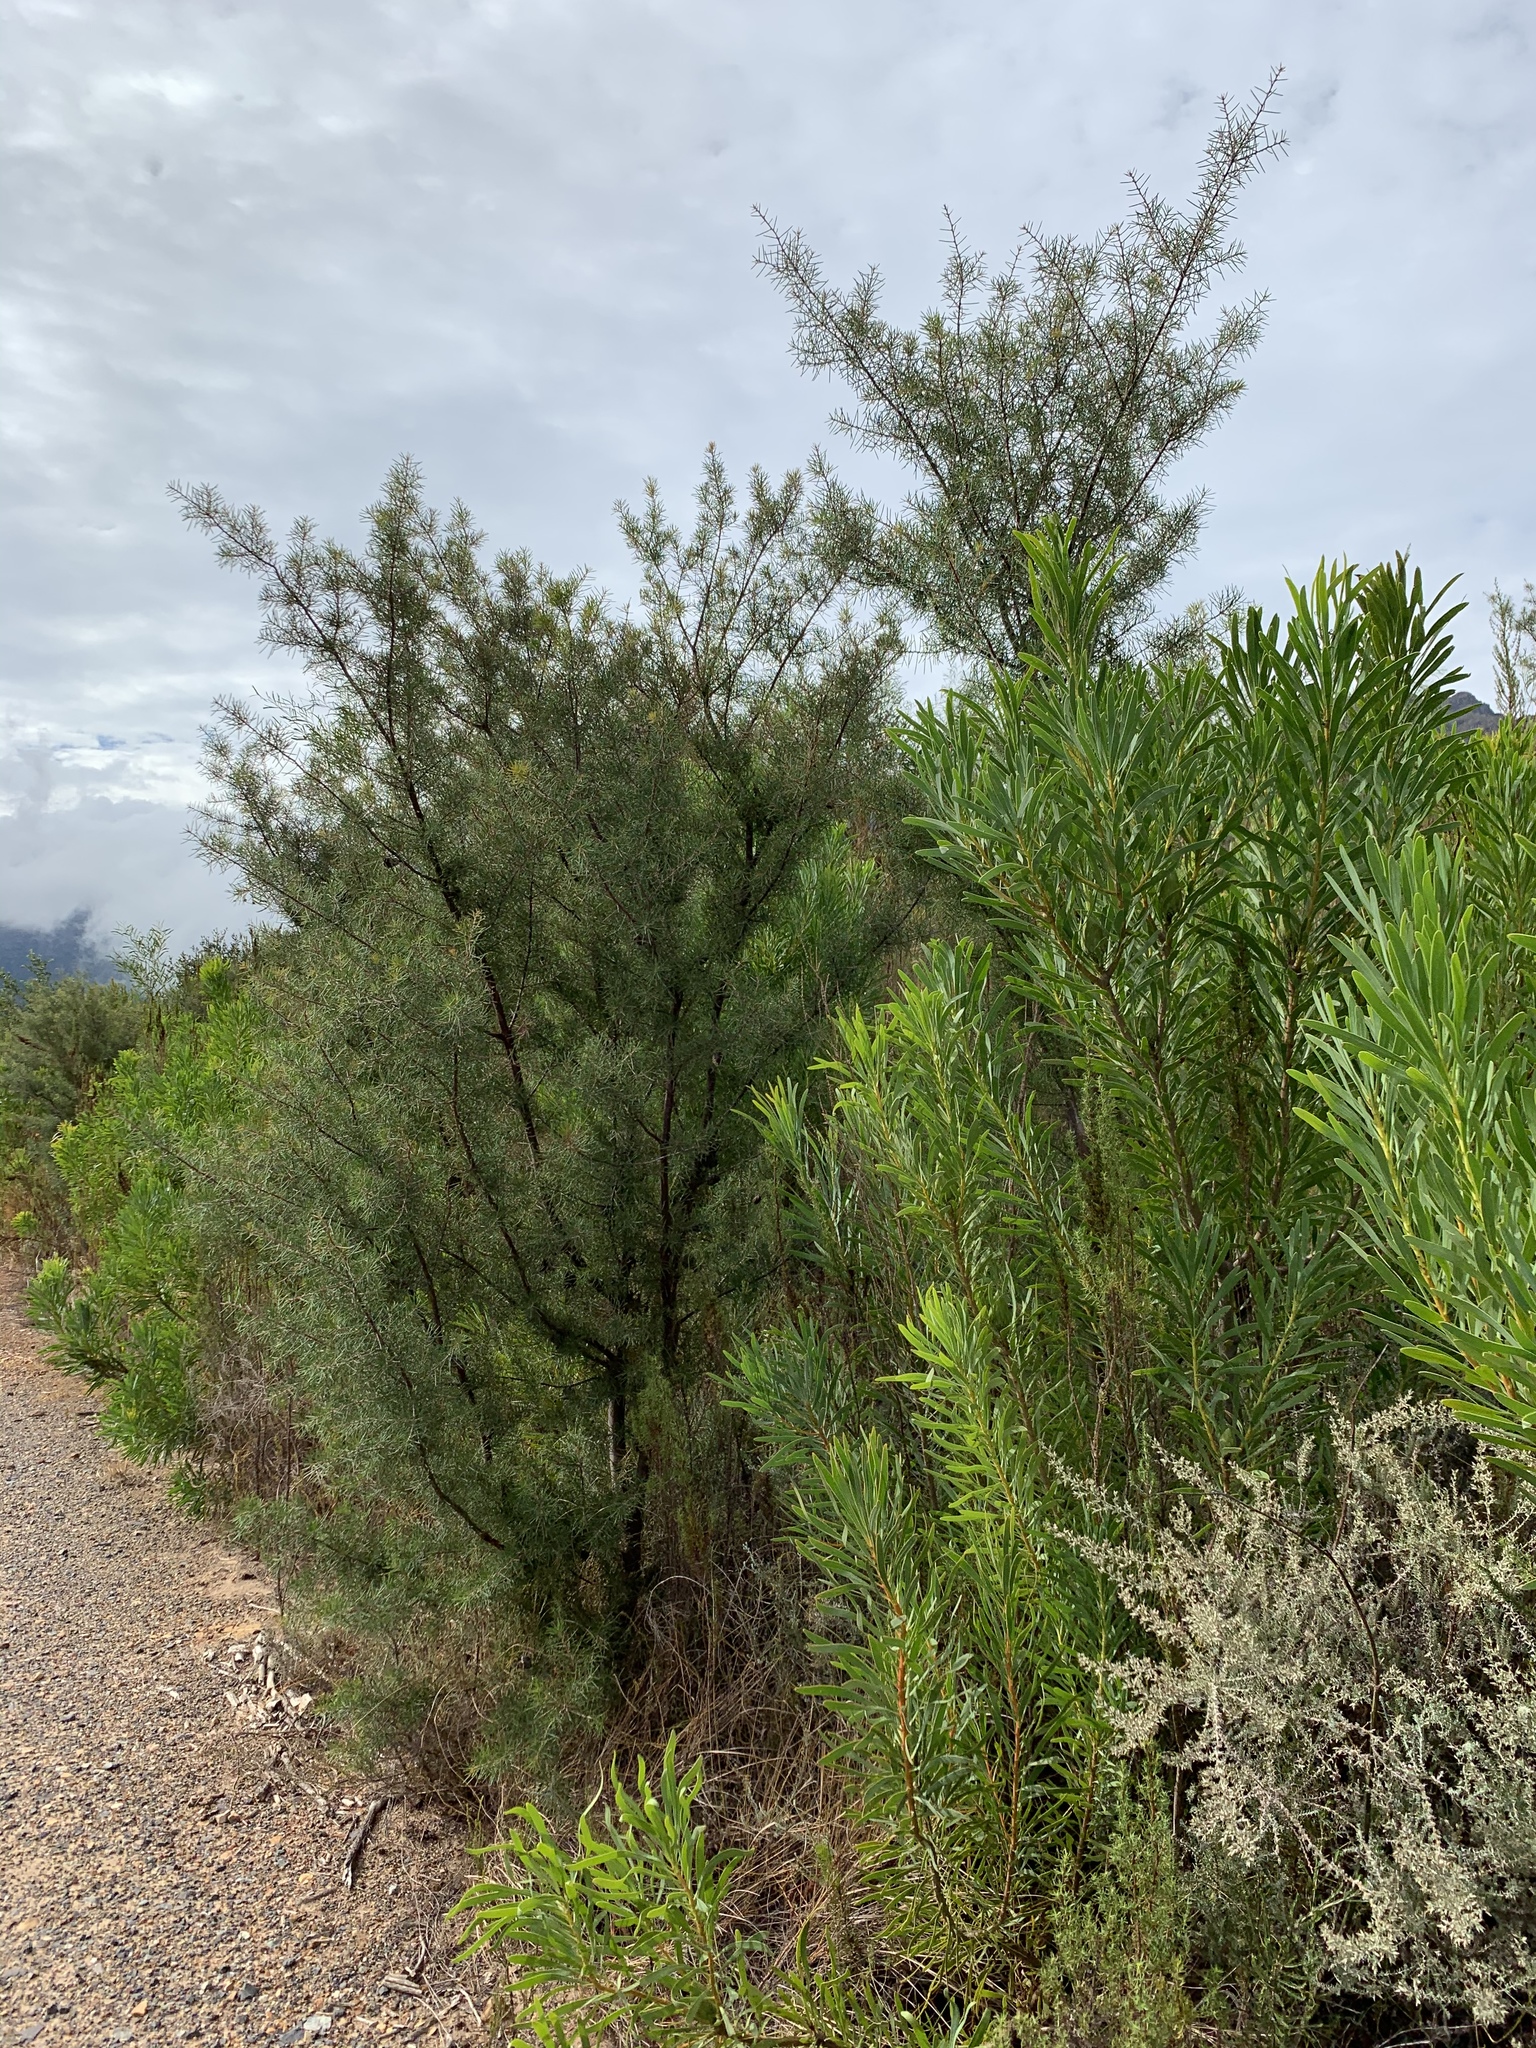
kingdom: Plantae
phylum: Tracheophyta
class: Magnoliopsida
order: Proteales
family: Proteaceae
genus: Hakea
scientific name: Hakea sericea
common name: Needle bush
